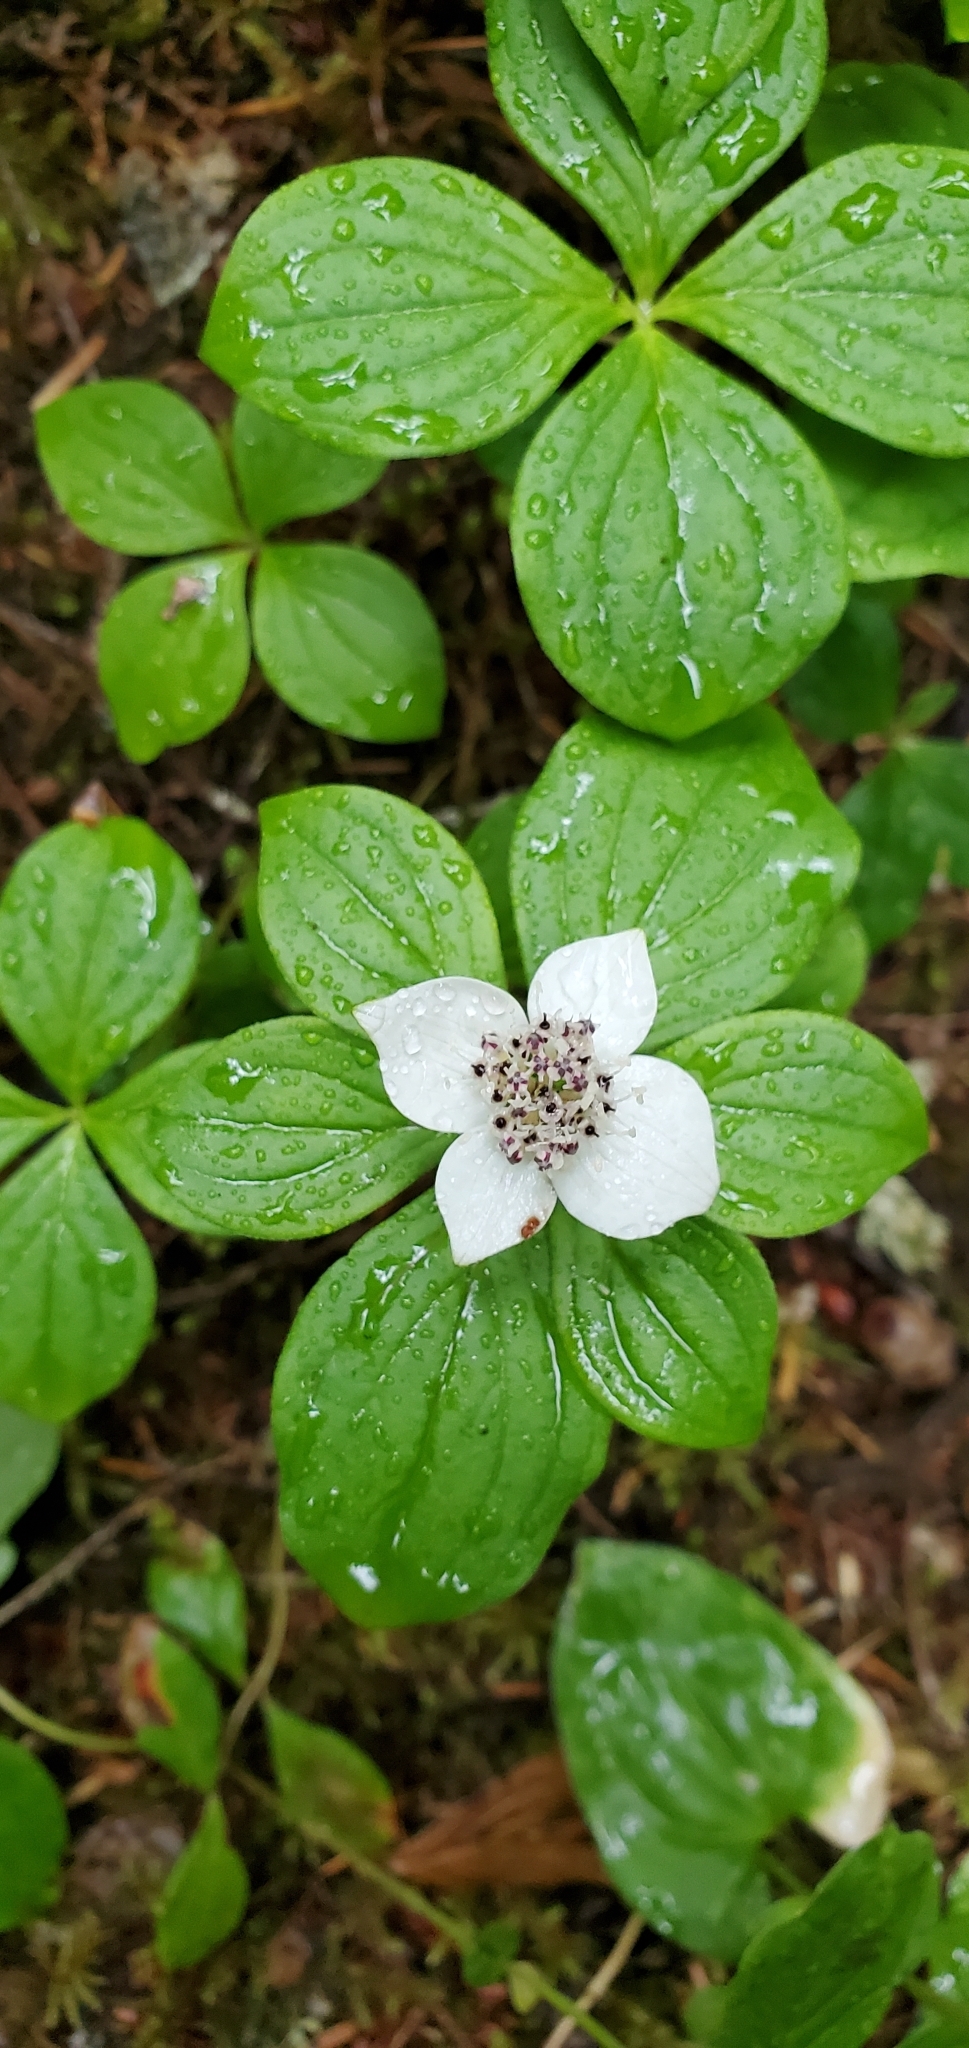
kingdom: Plantae
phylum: Tracheophyta
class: Magnoliopsida
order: Cornales
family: Cornaceae
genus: Cornus
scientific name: Cornus unalaschkensis
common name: Alaska bunchberry
